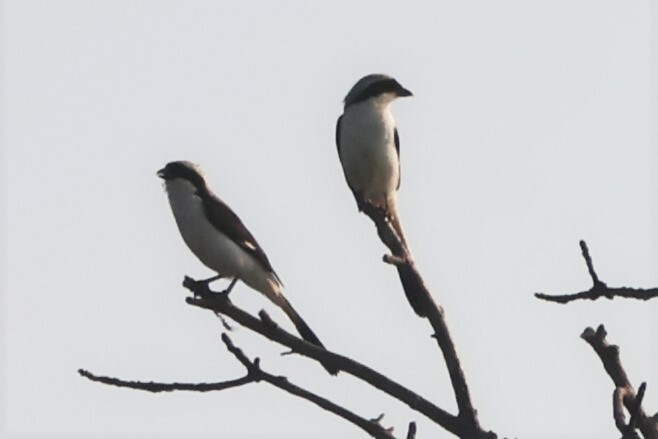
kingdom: Animalia
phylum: Chordata
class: Aves
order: Passeriformes
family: Laniidae
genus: Lanius
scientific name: Lanius excubitoroides
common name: Grey-backed fiscal
